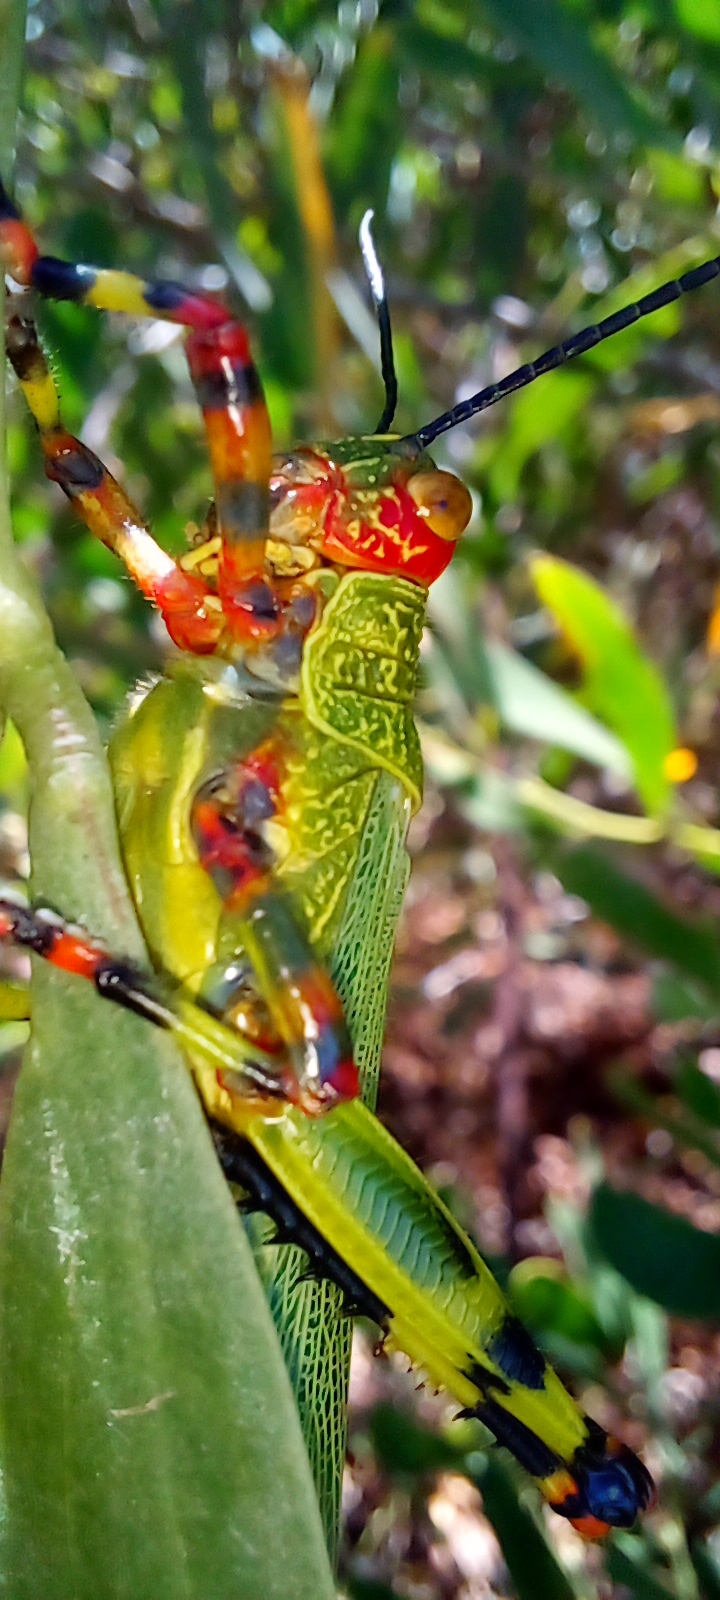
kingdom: Animalia
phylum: Arthropoda
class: Insecta
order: Orthoptera
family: Romaleidae
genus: Zoniopoda
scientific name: Zoniopoda tarsata
